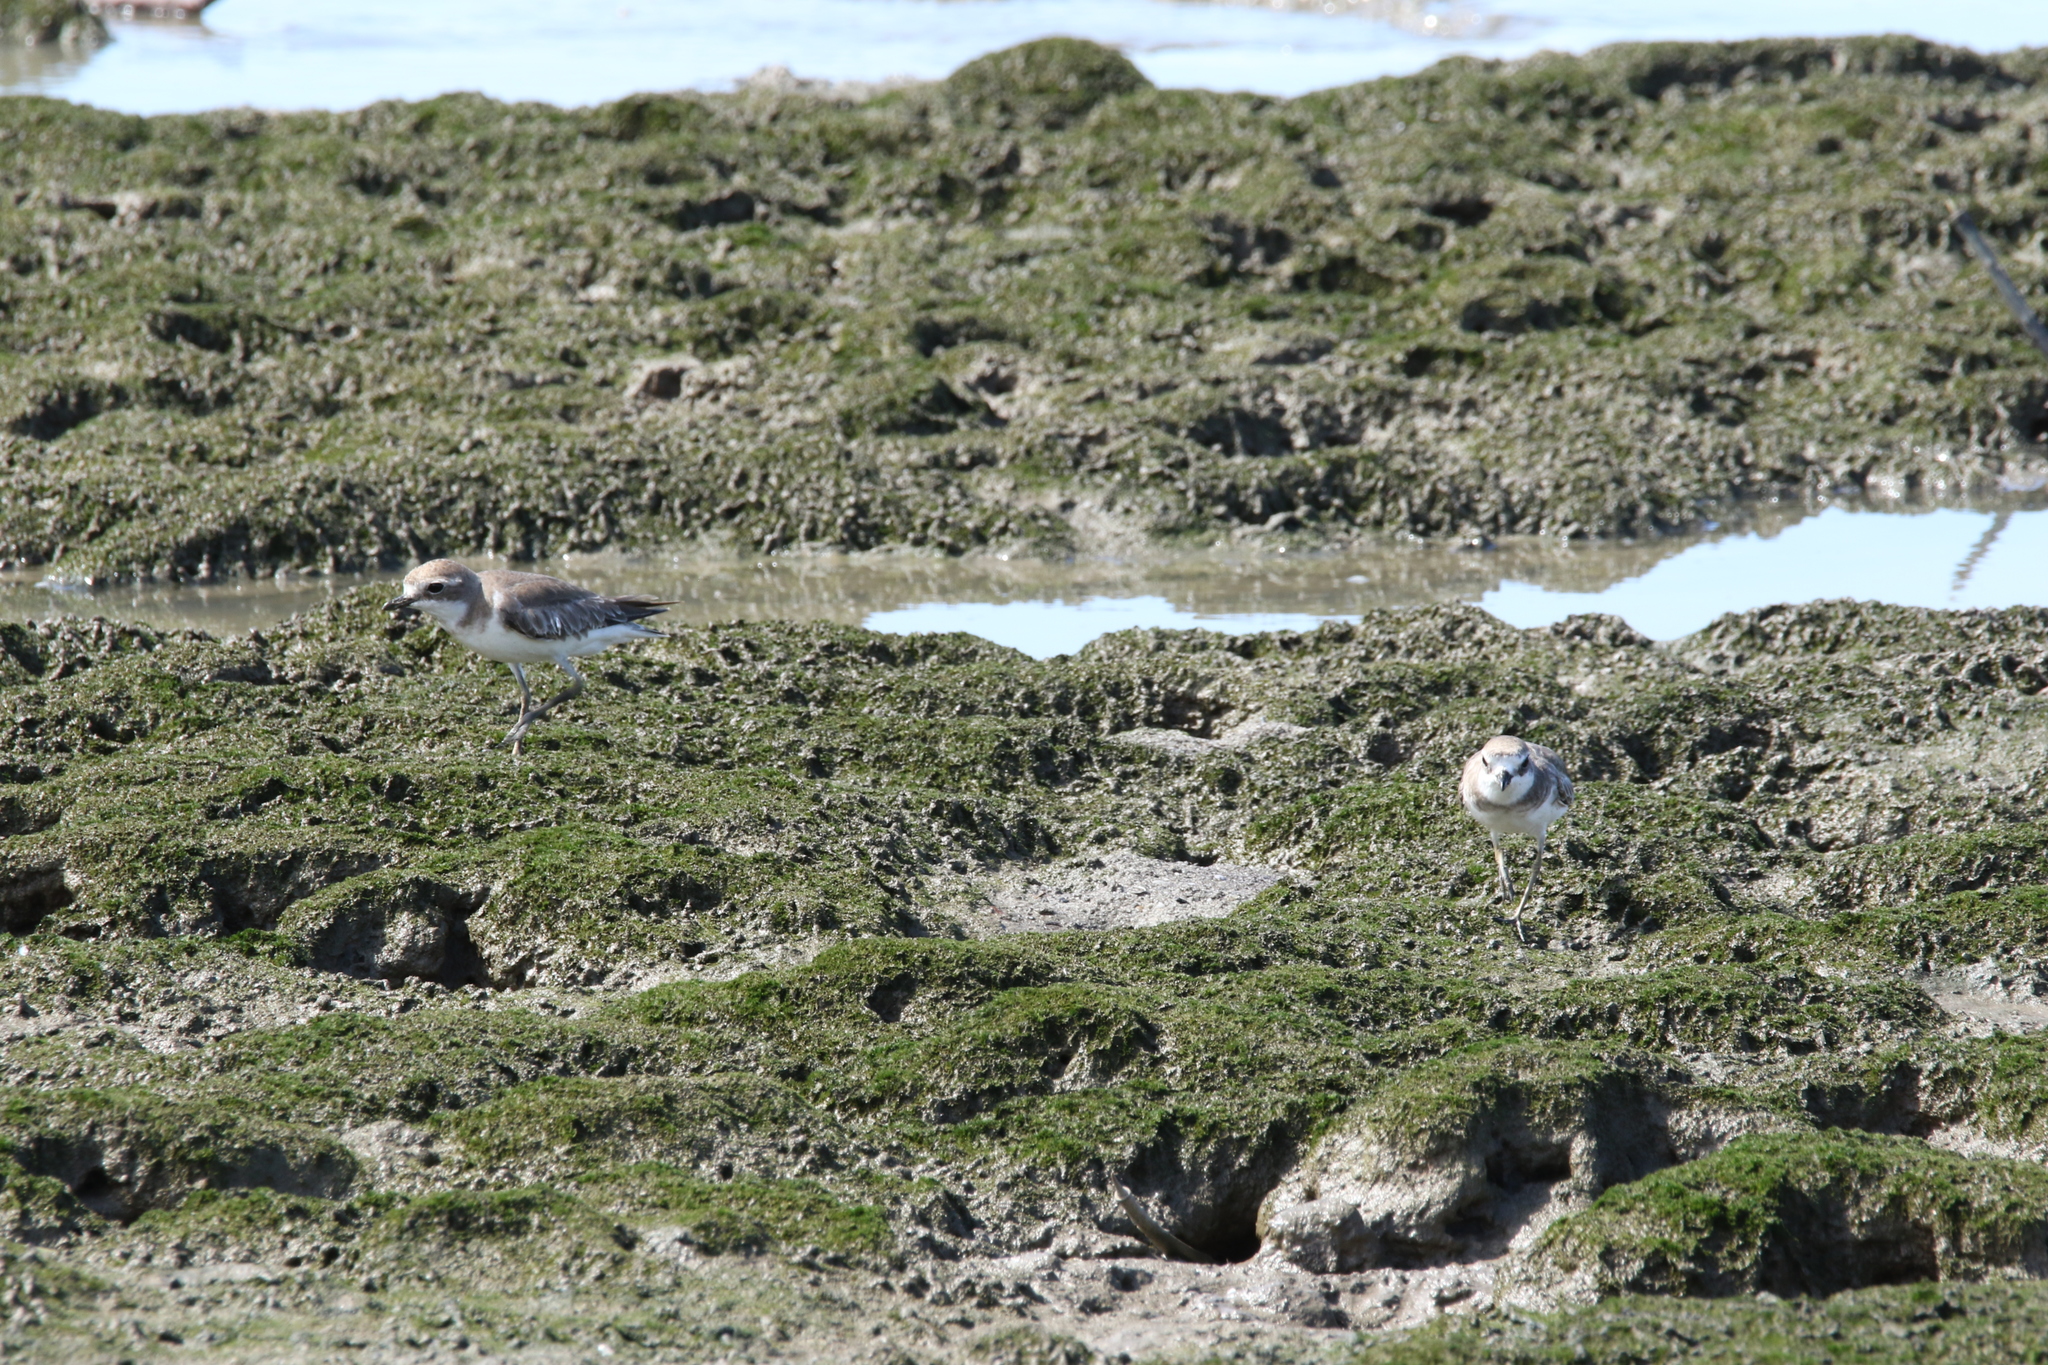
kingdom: Animalia
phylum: Chordata
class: Aves
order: Charadriiformes
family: Charadriidae
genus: Charadrius
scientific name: Charadrius leschenaultii
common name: Greater sand plover
